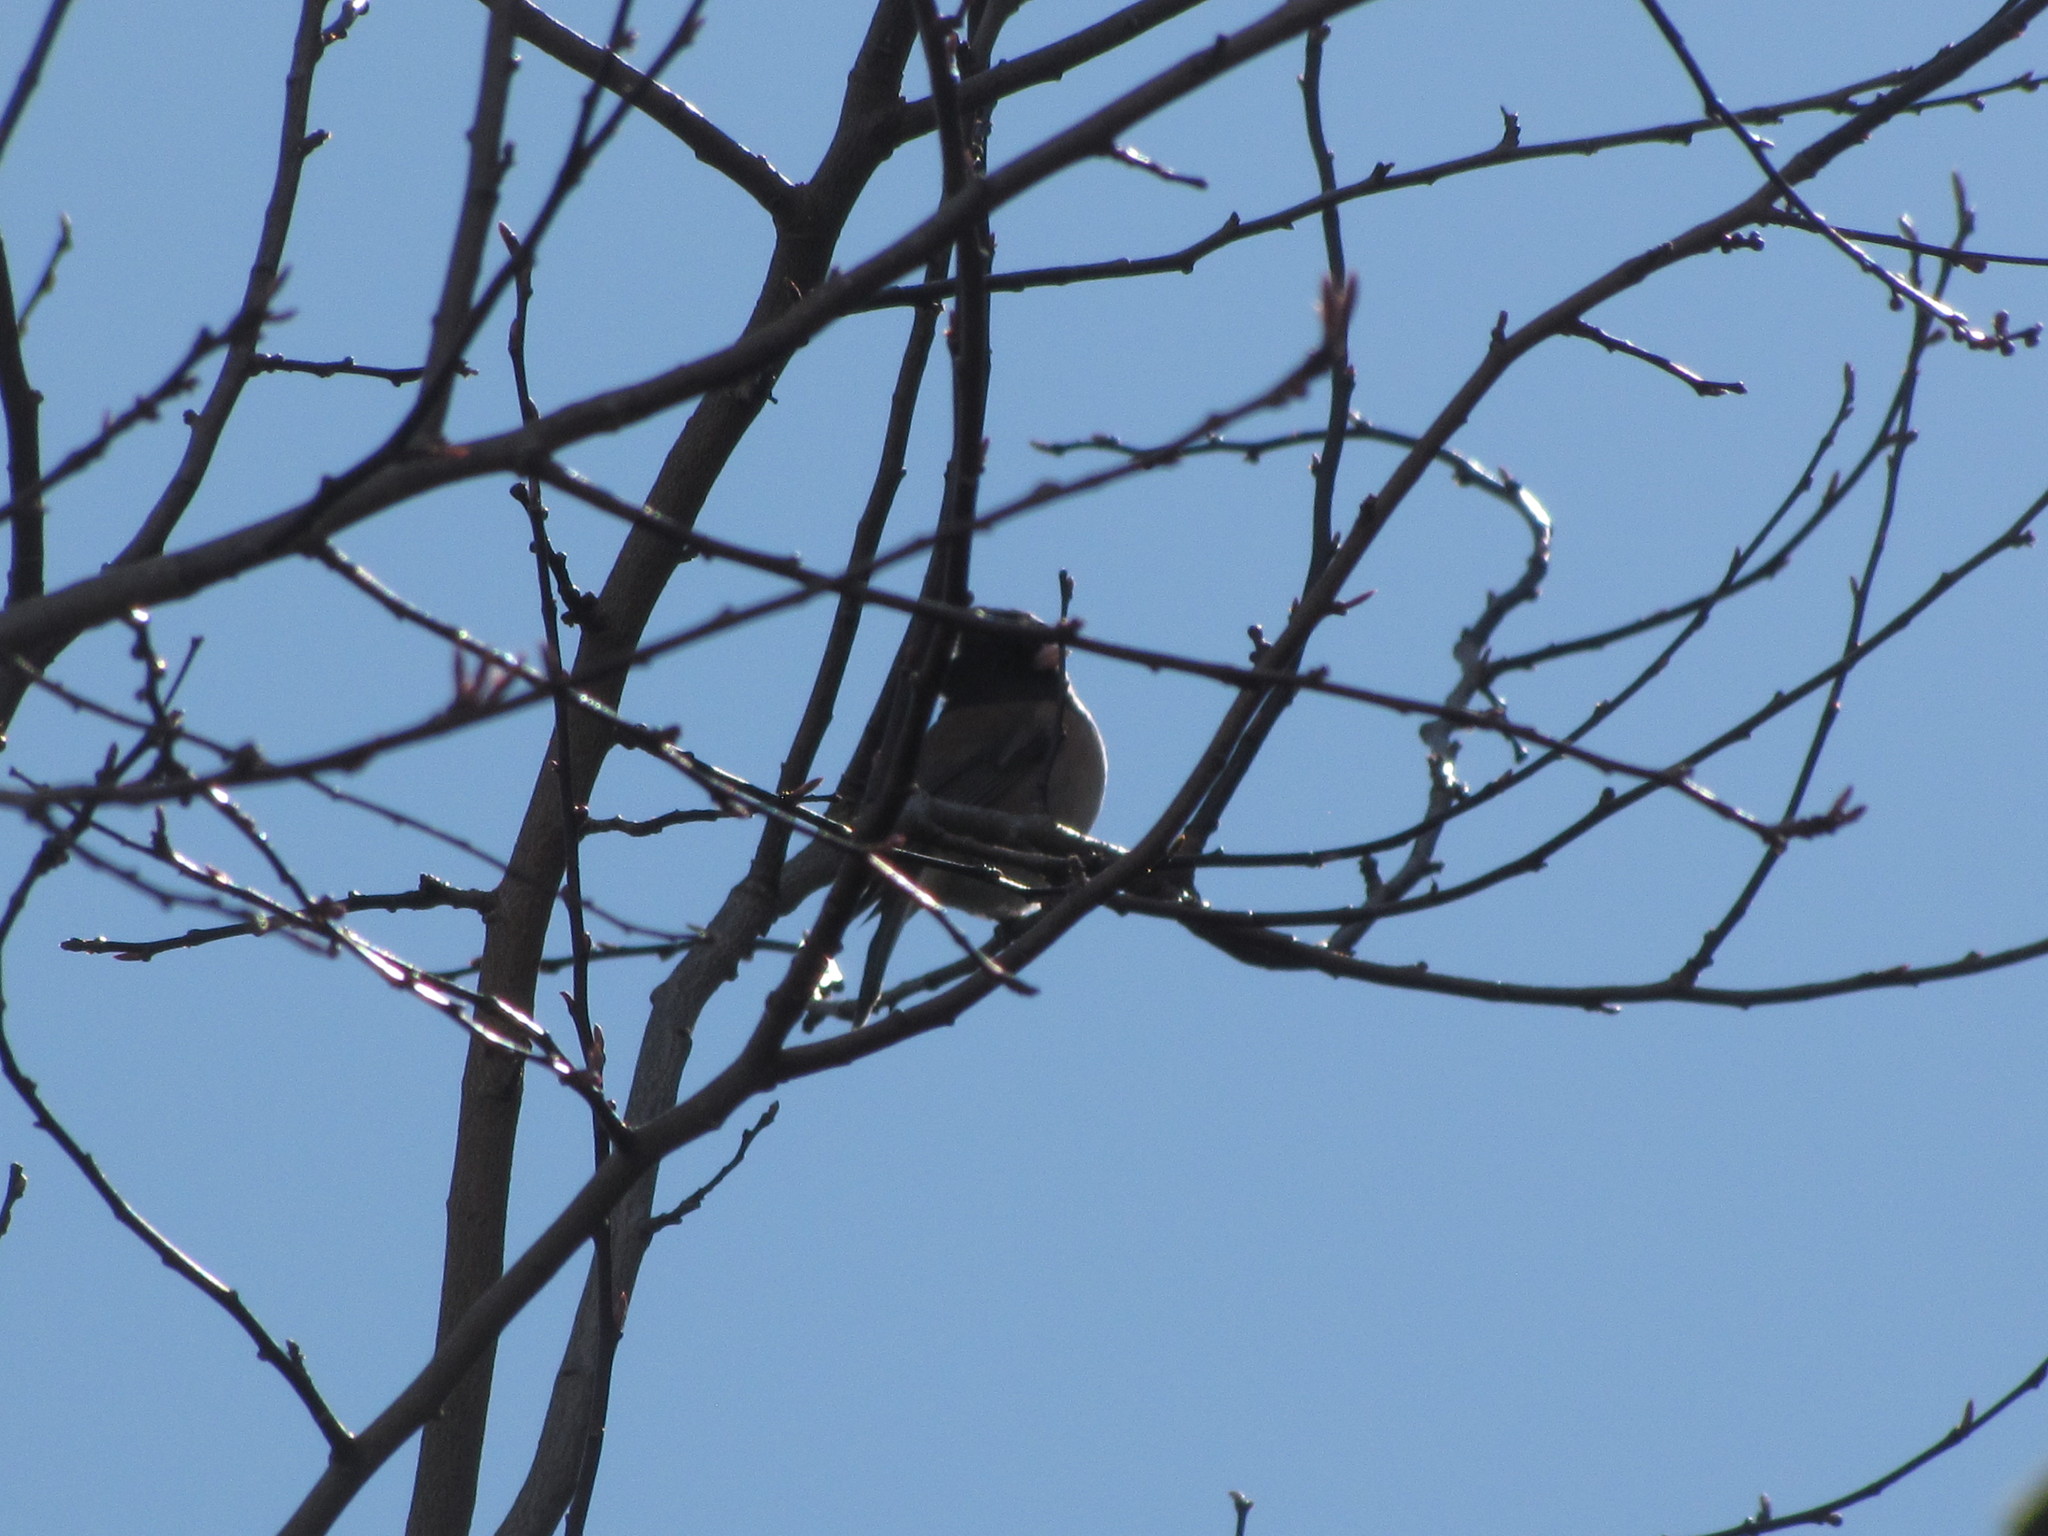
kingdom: Animalia
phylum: Chordata
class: Aves
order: Passeriformes
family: Passerellidae
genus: Junco
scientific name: Junco hyemalis
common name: Dark-eyed junco
